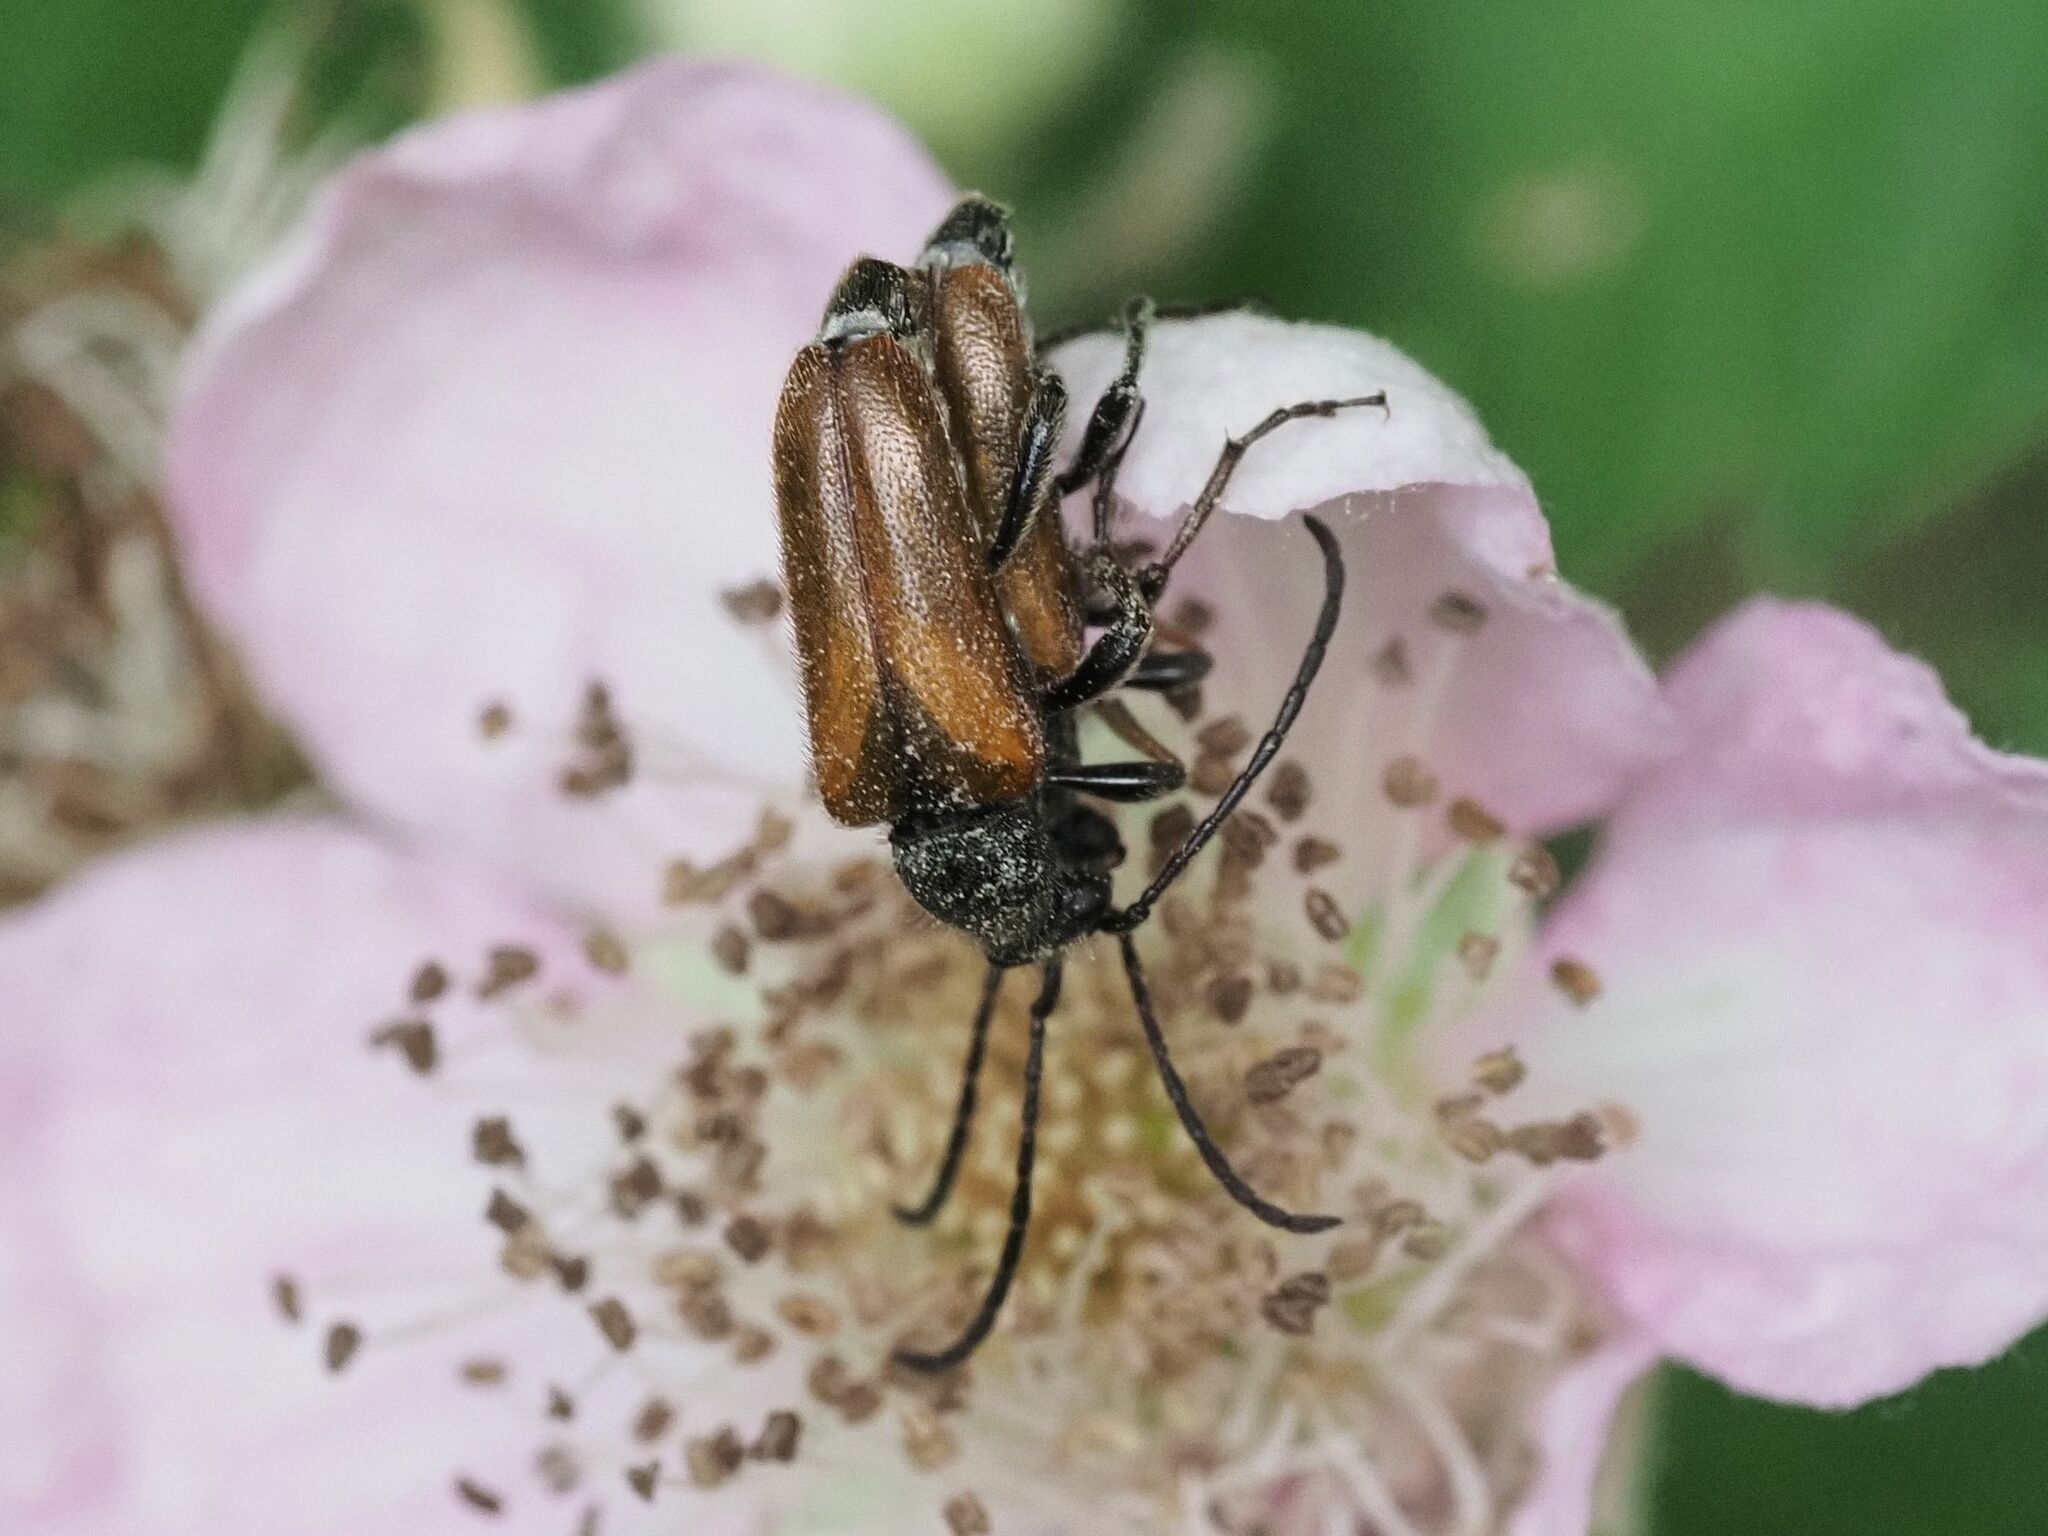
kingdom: Animalia
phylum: Arthropoda
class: Insecta
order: Coleoptera
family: Cerambycidae
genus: Pseudovadonia
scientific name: Pseudovadonia livida
